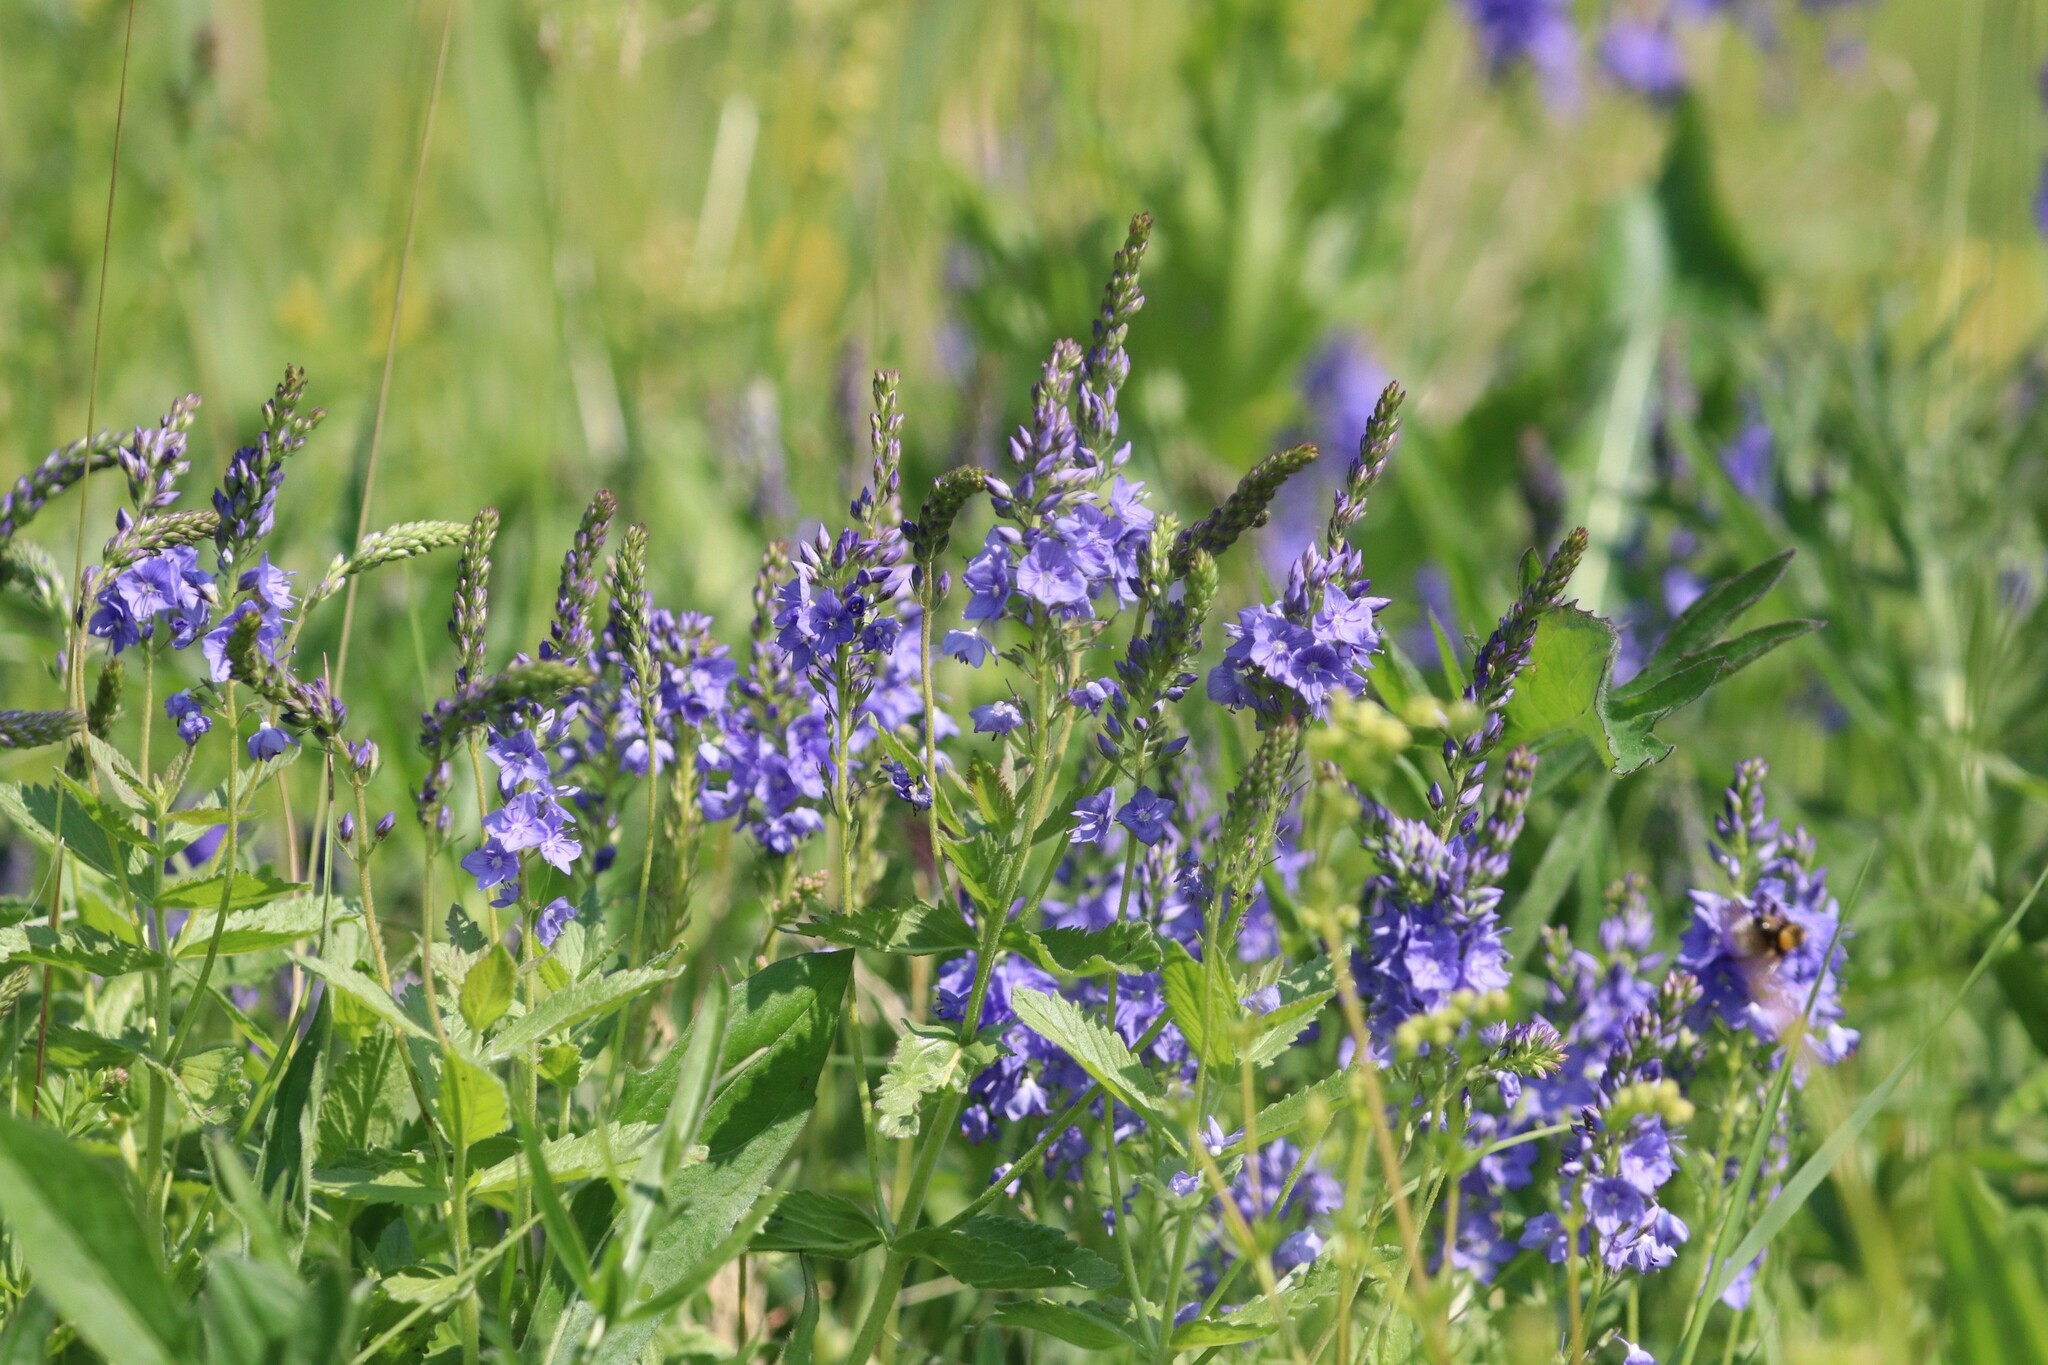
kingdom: Plantae
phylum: Tracheophyta
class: Magnoliopsida
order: Lamiales
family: Plantaginaceae
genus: Veronica
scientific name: Veronica teucrium
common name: Large speedwell
